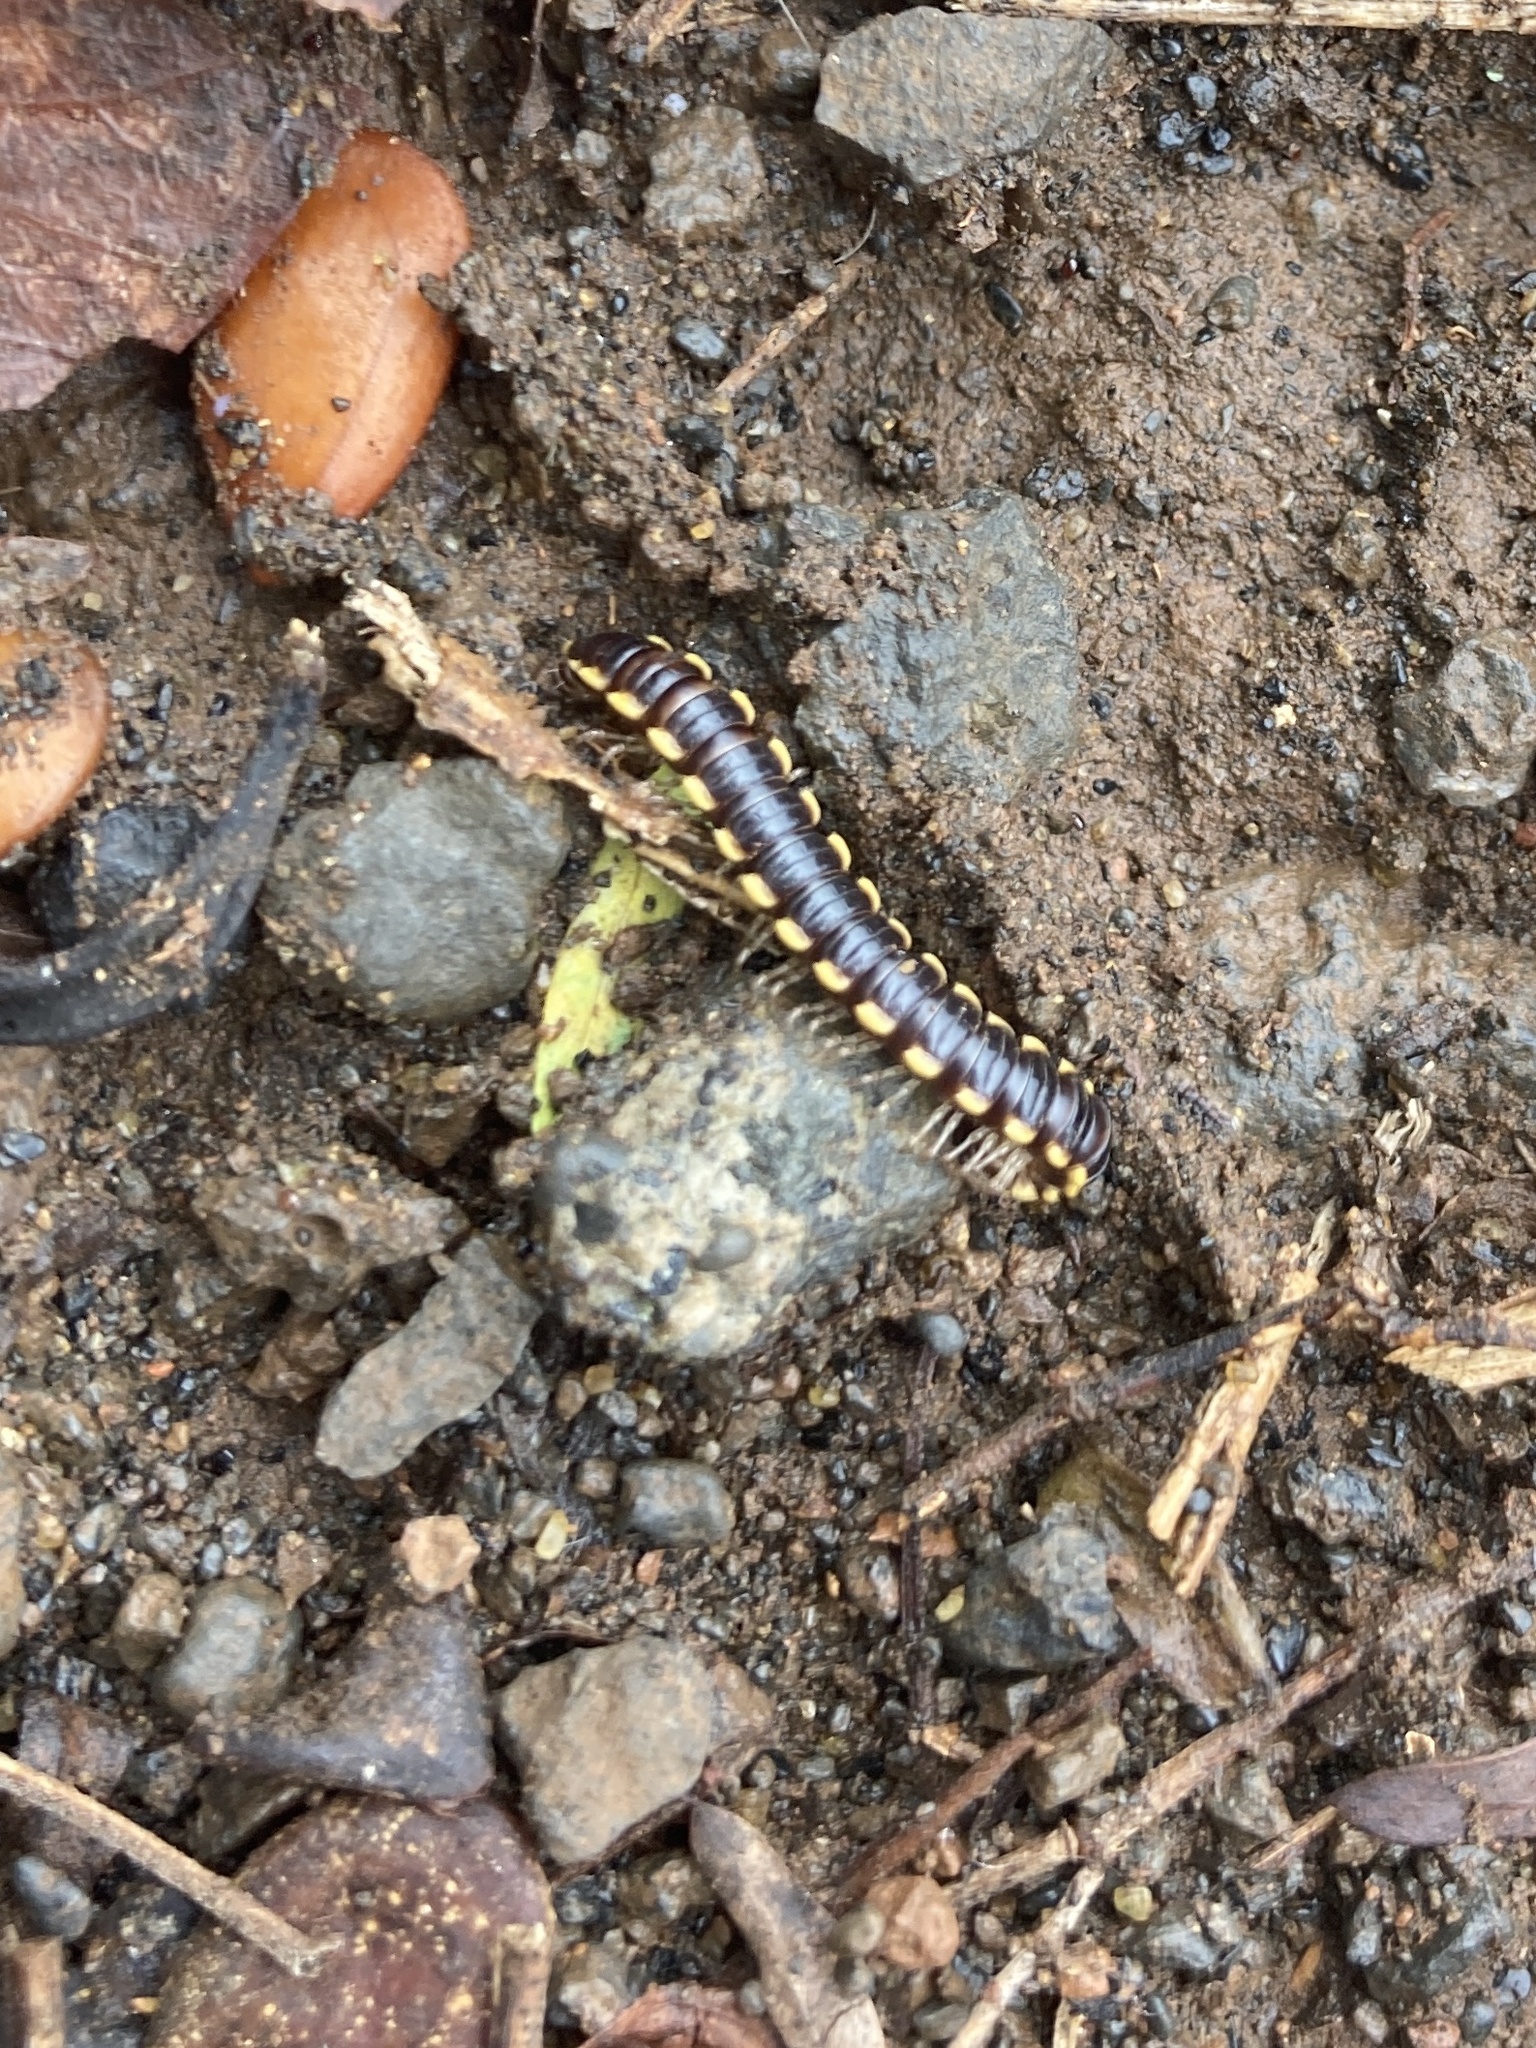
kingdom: Animalia
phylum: Arthropoda
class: Diplopoda
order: Polydesmida
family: Paradoxosomatidae
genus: Orthomorpha
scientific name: Orthomorpha coarctata
